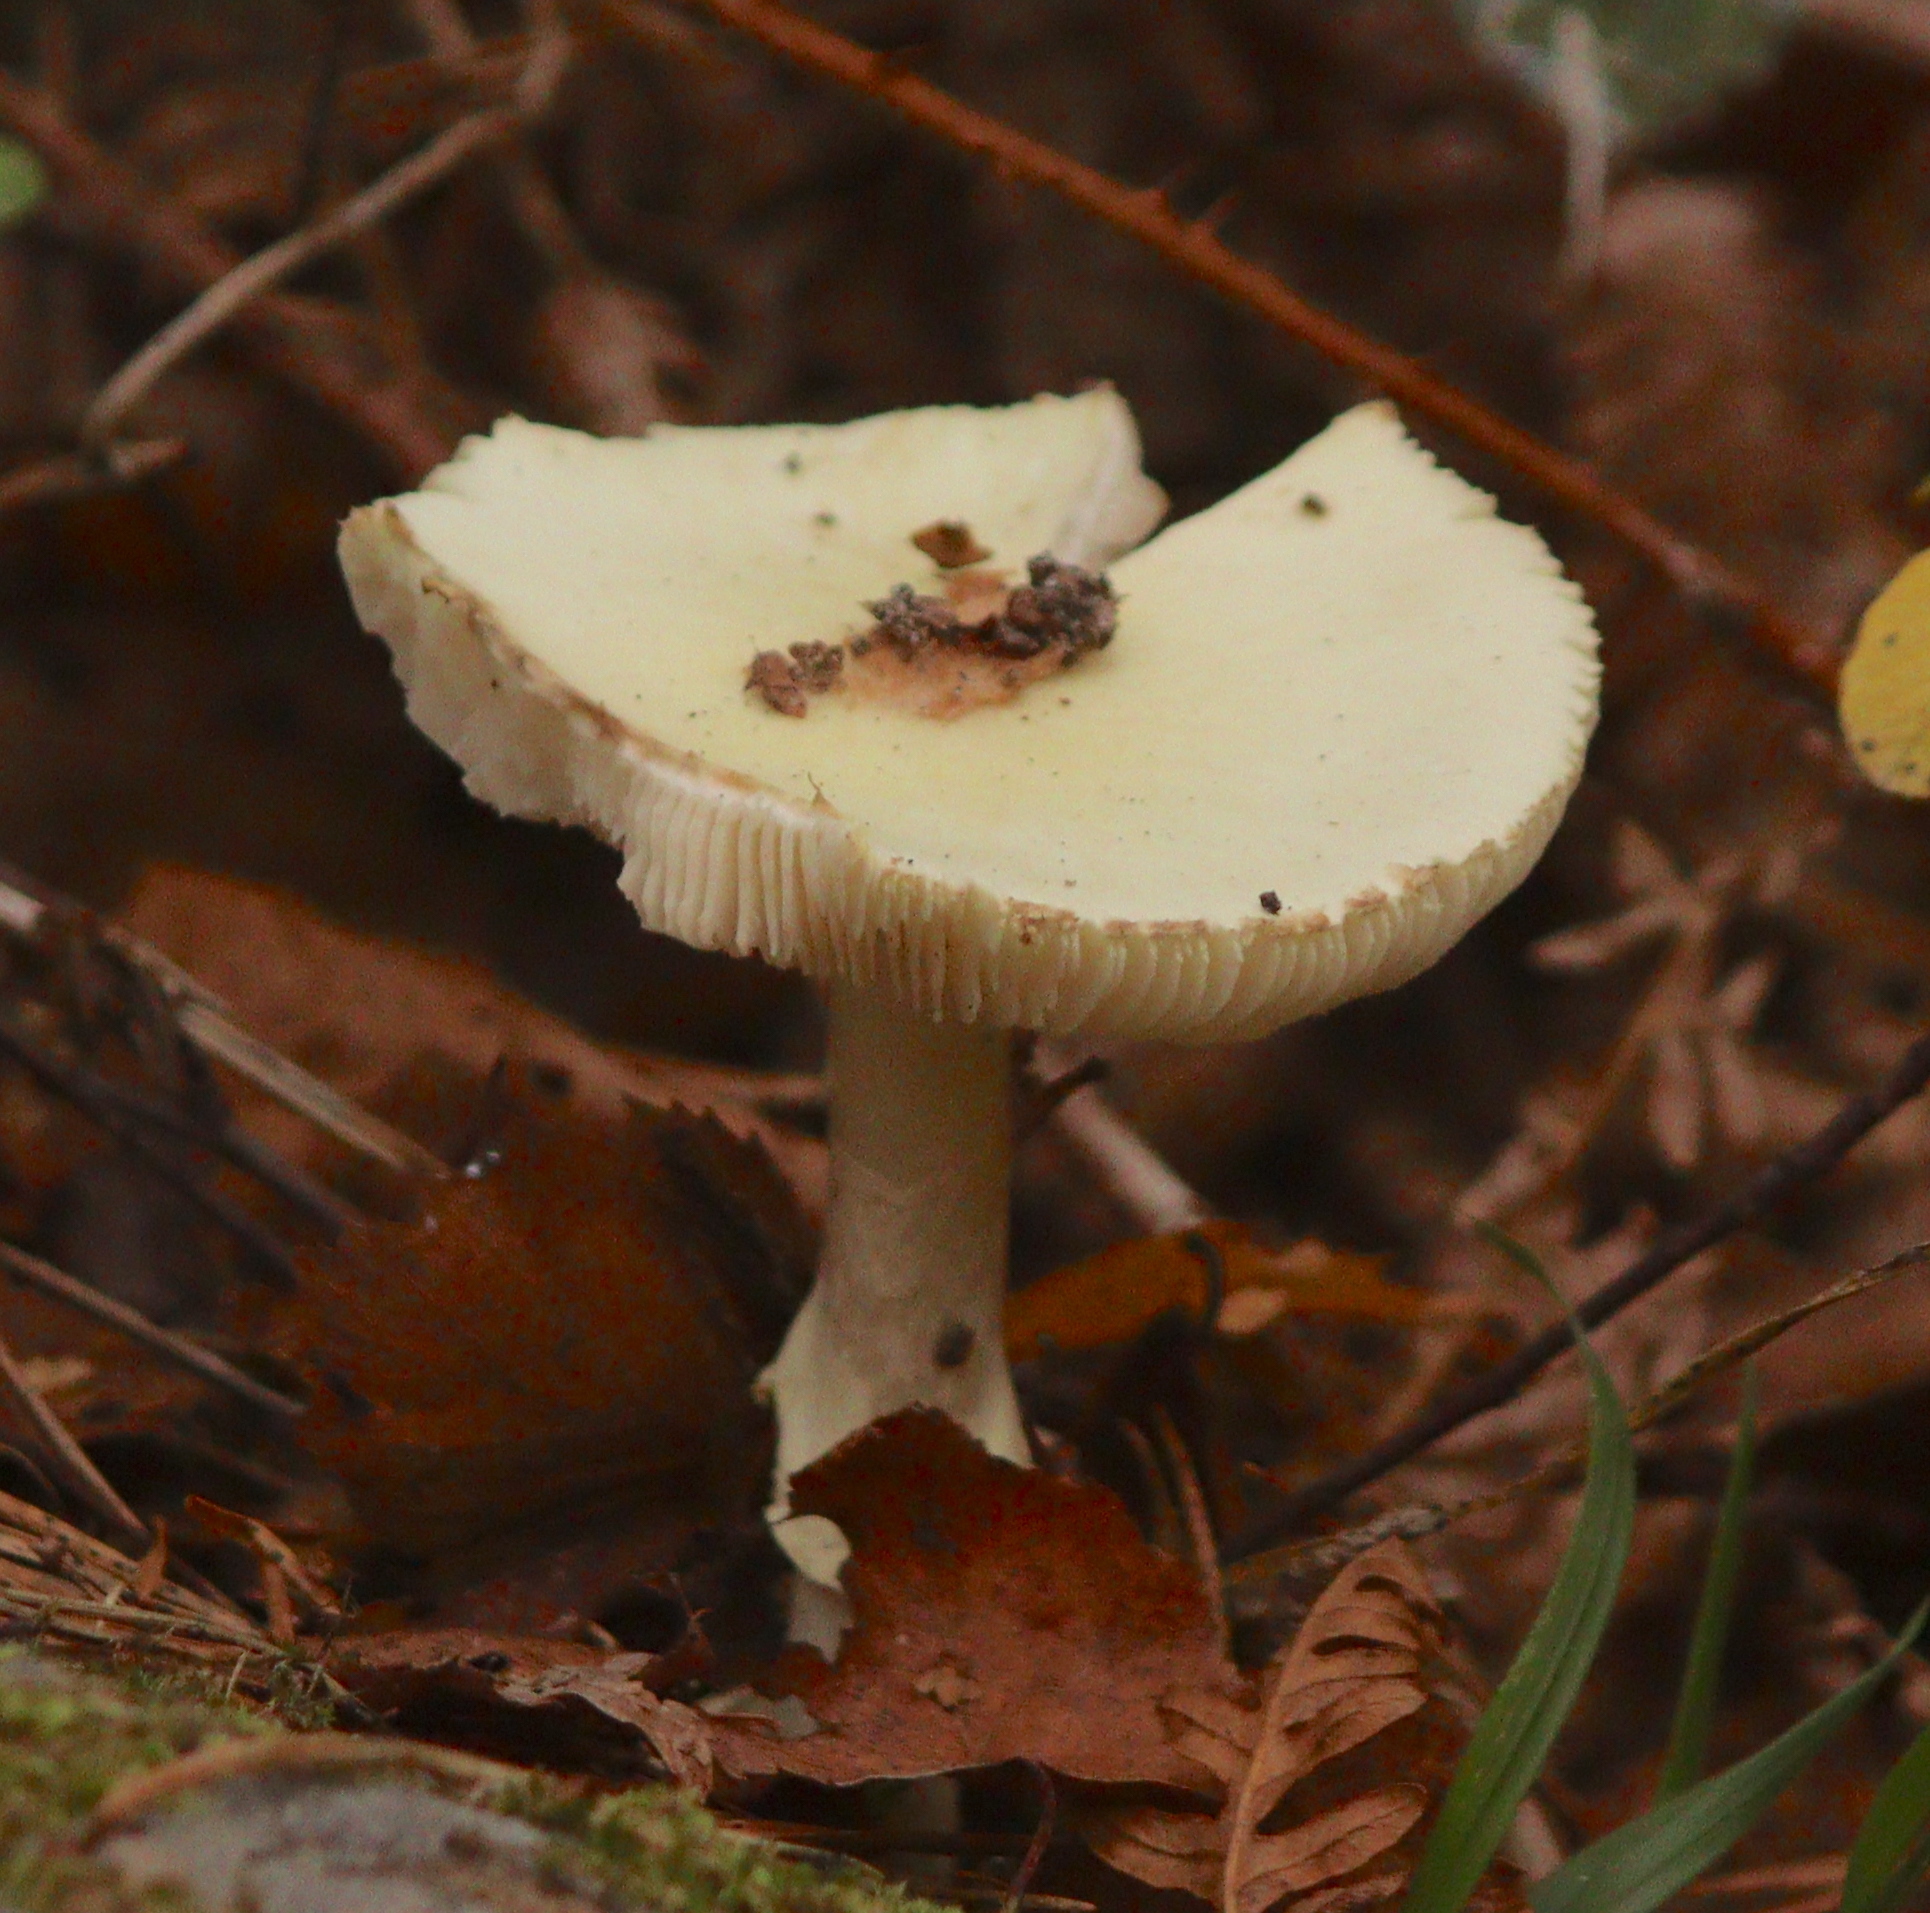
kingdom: Fungi
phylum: Basidiomycota
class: Agaricomycetes
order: Agaricales
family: Amanitaceae
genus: Amanita
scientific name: Amanita citrina
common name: False death-cap
